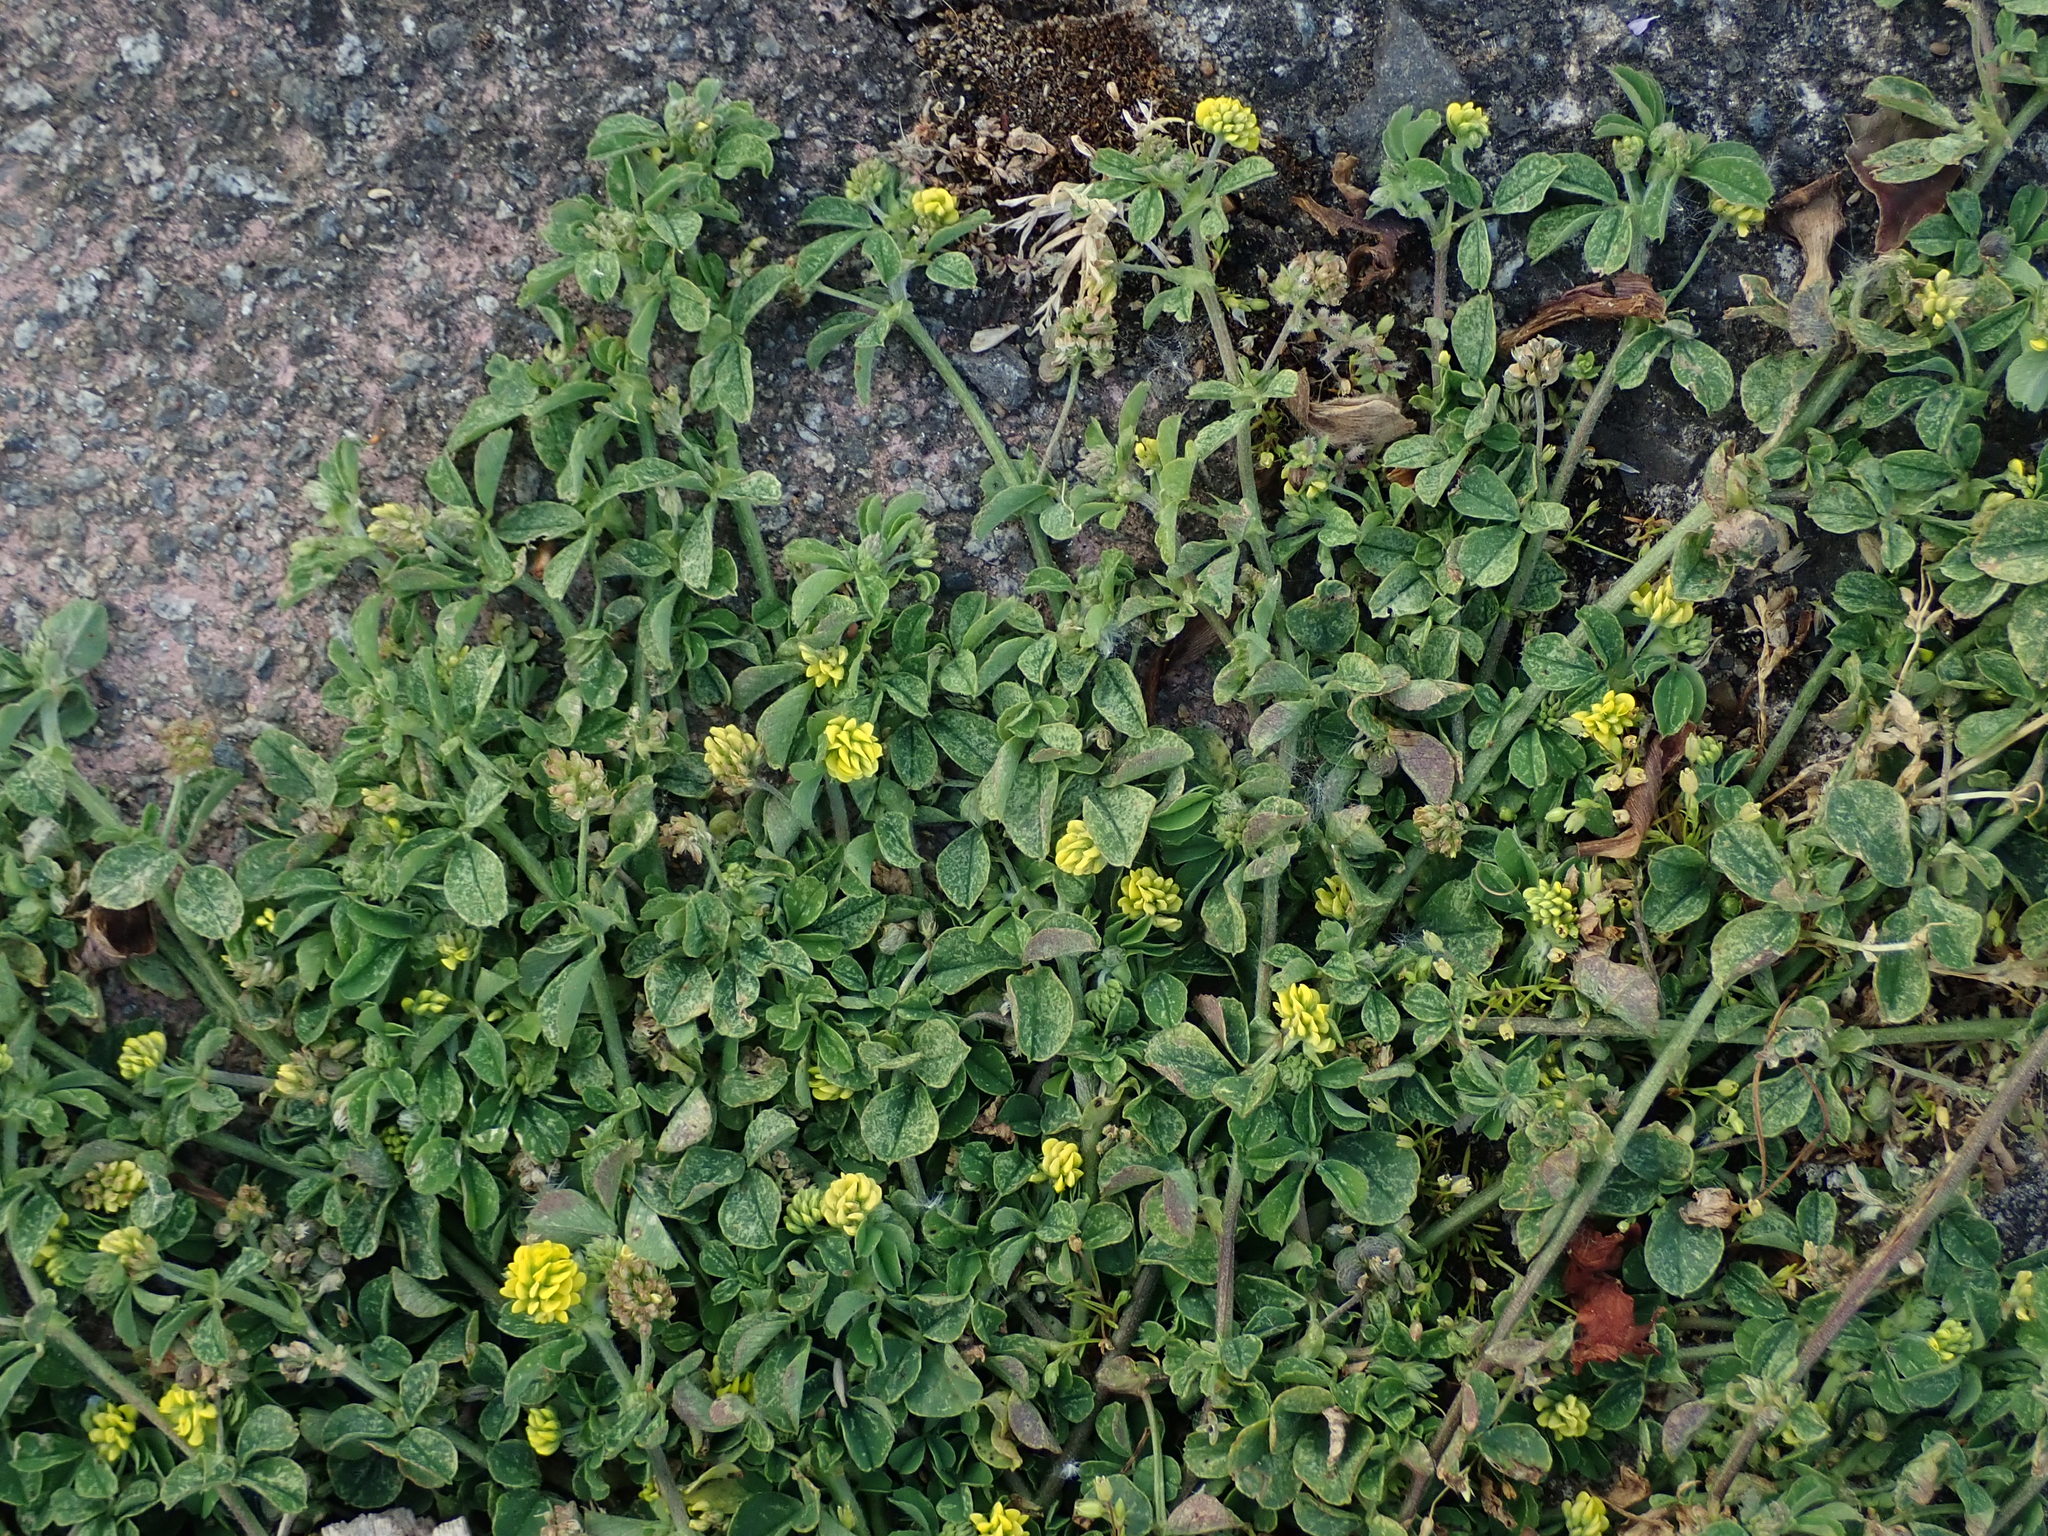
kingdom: Plantae
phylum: Tracheophyta
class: Magnoliopsida
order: Fabales
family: Fabaceae
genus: Medicago
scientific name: Medicago lupulina
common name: Black medick
